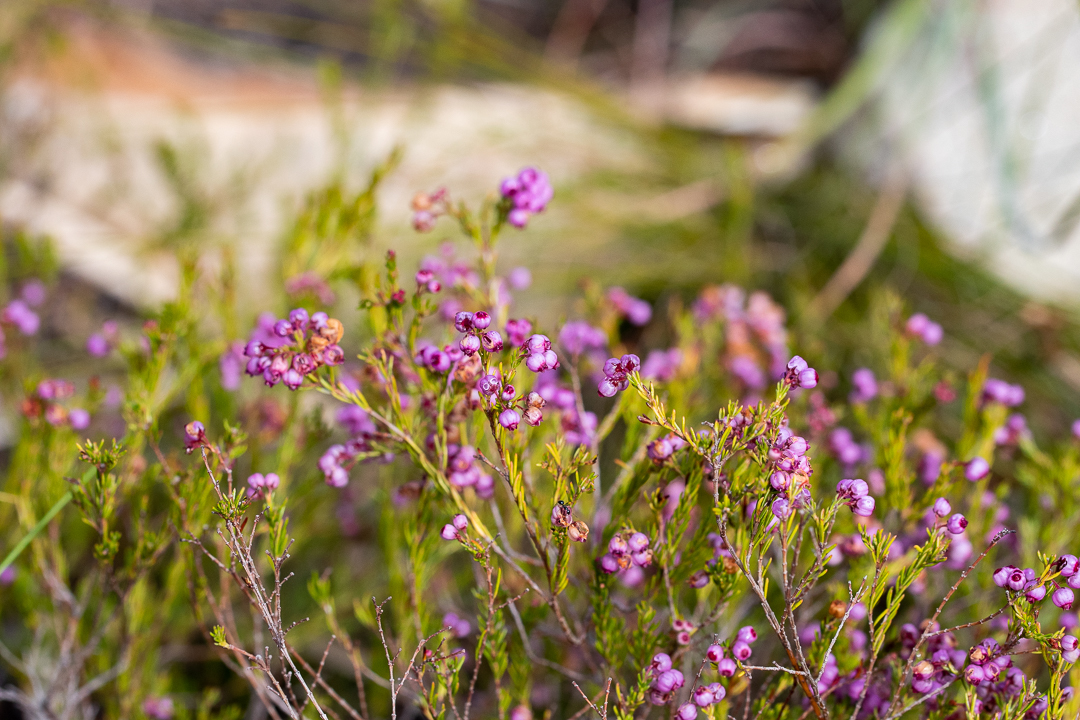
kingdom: Plantae
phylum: Tracheophyta
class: Magnoliopsida
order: Ericales
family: Ericaceae
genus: Erica
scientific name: Erica multumbellifera
